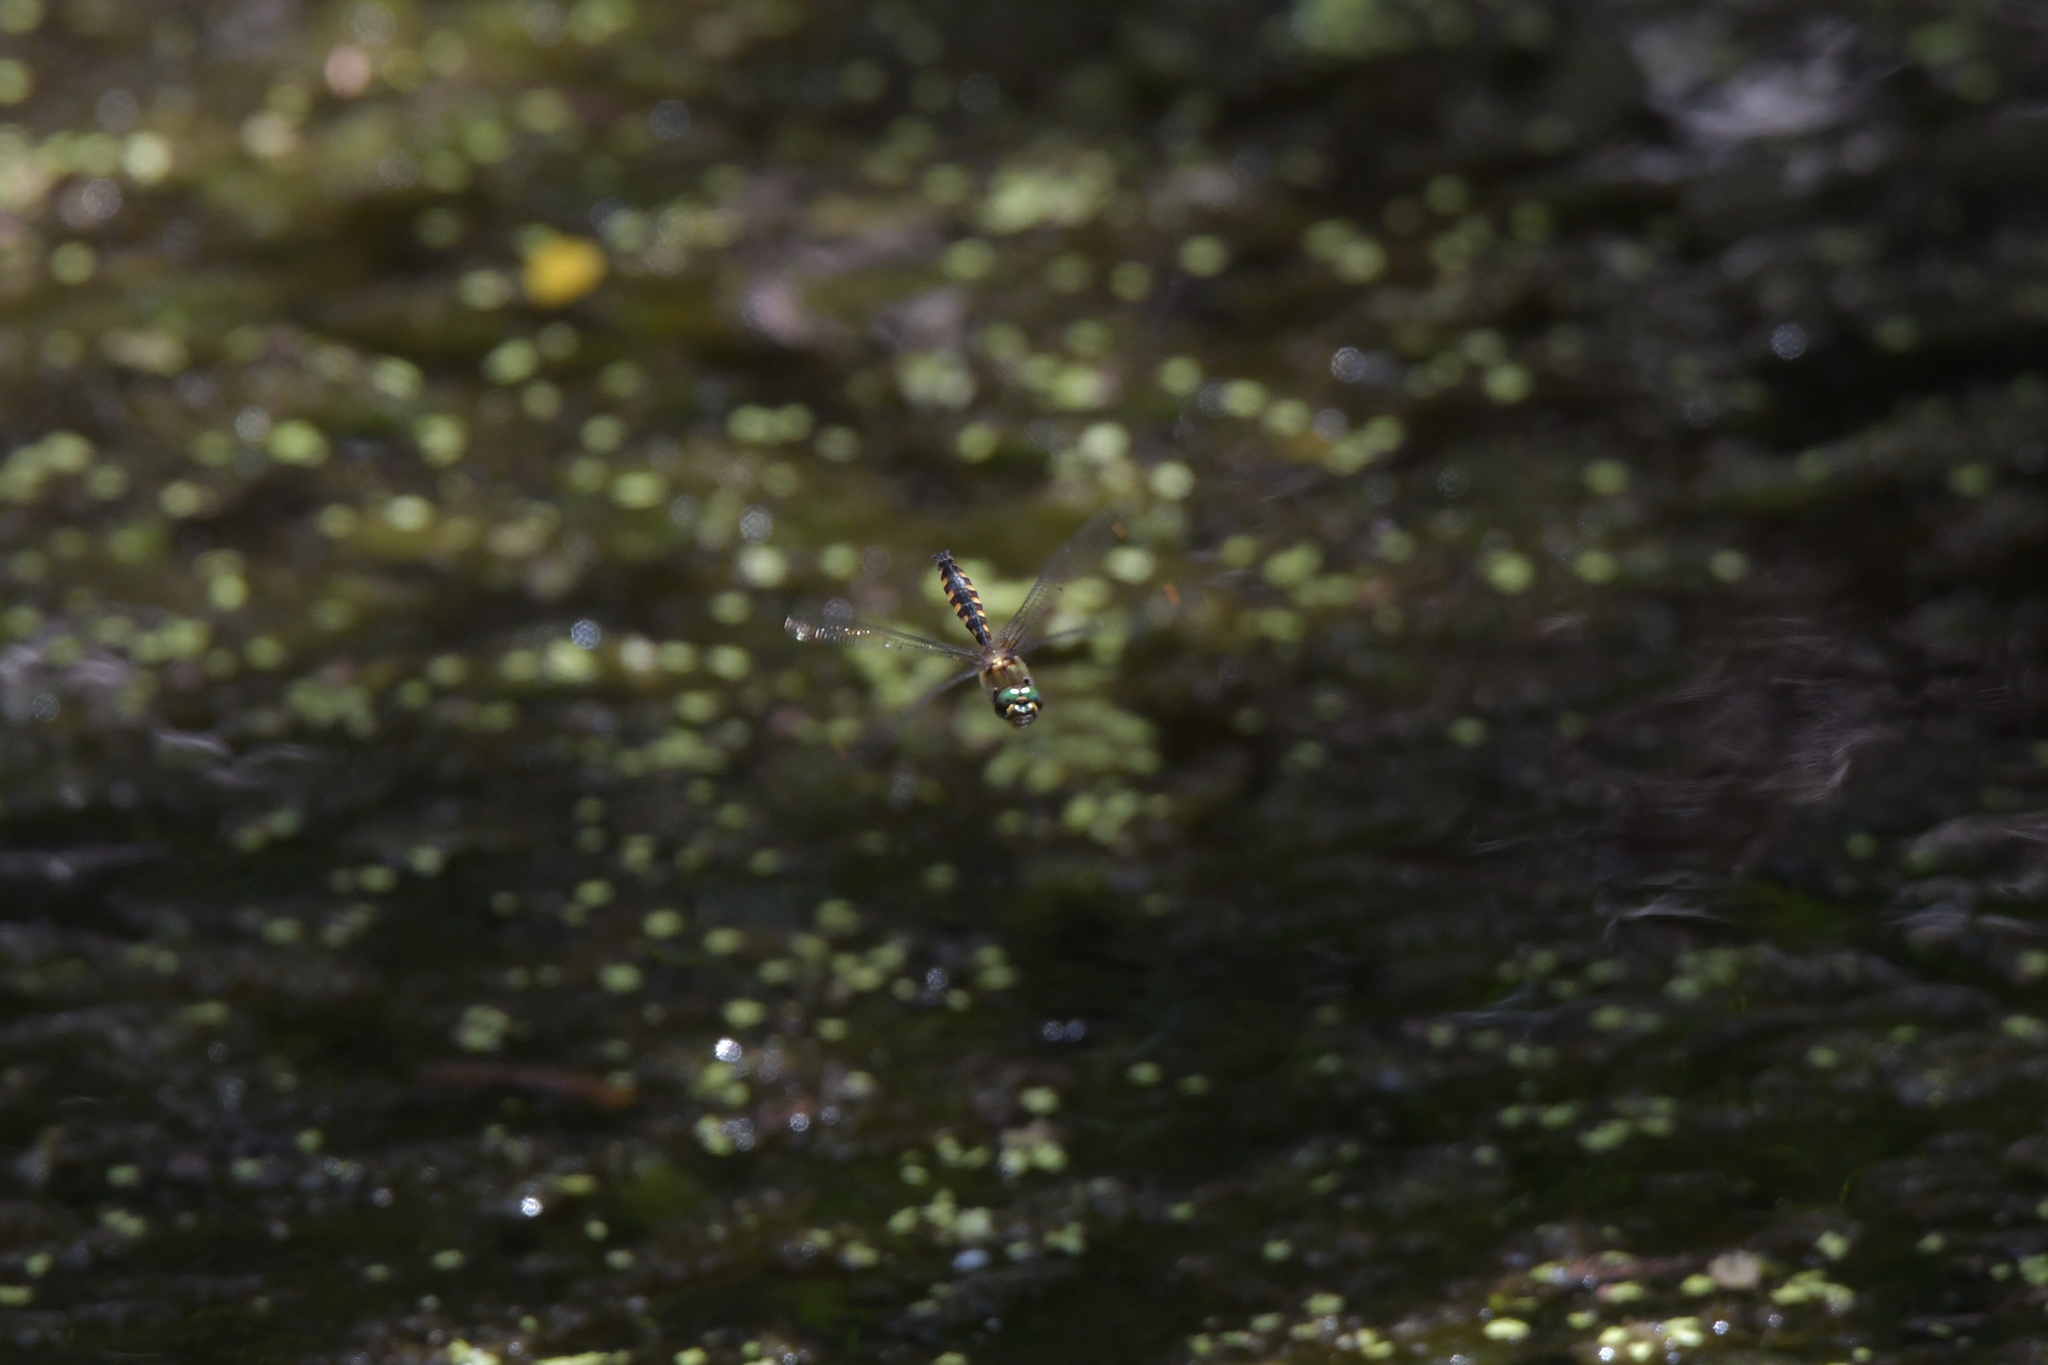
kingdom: Animalia
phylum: Arthropoda
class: Insecta
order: Odonata
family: Corduliidae
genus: Procordulia
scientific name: Procordulia grayi
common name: Yellow spotted dragonfly
